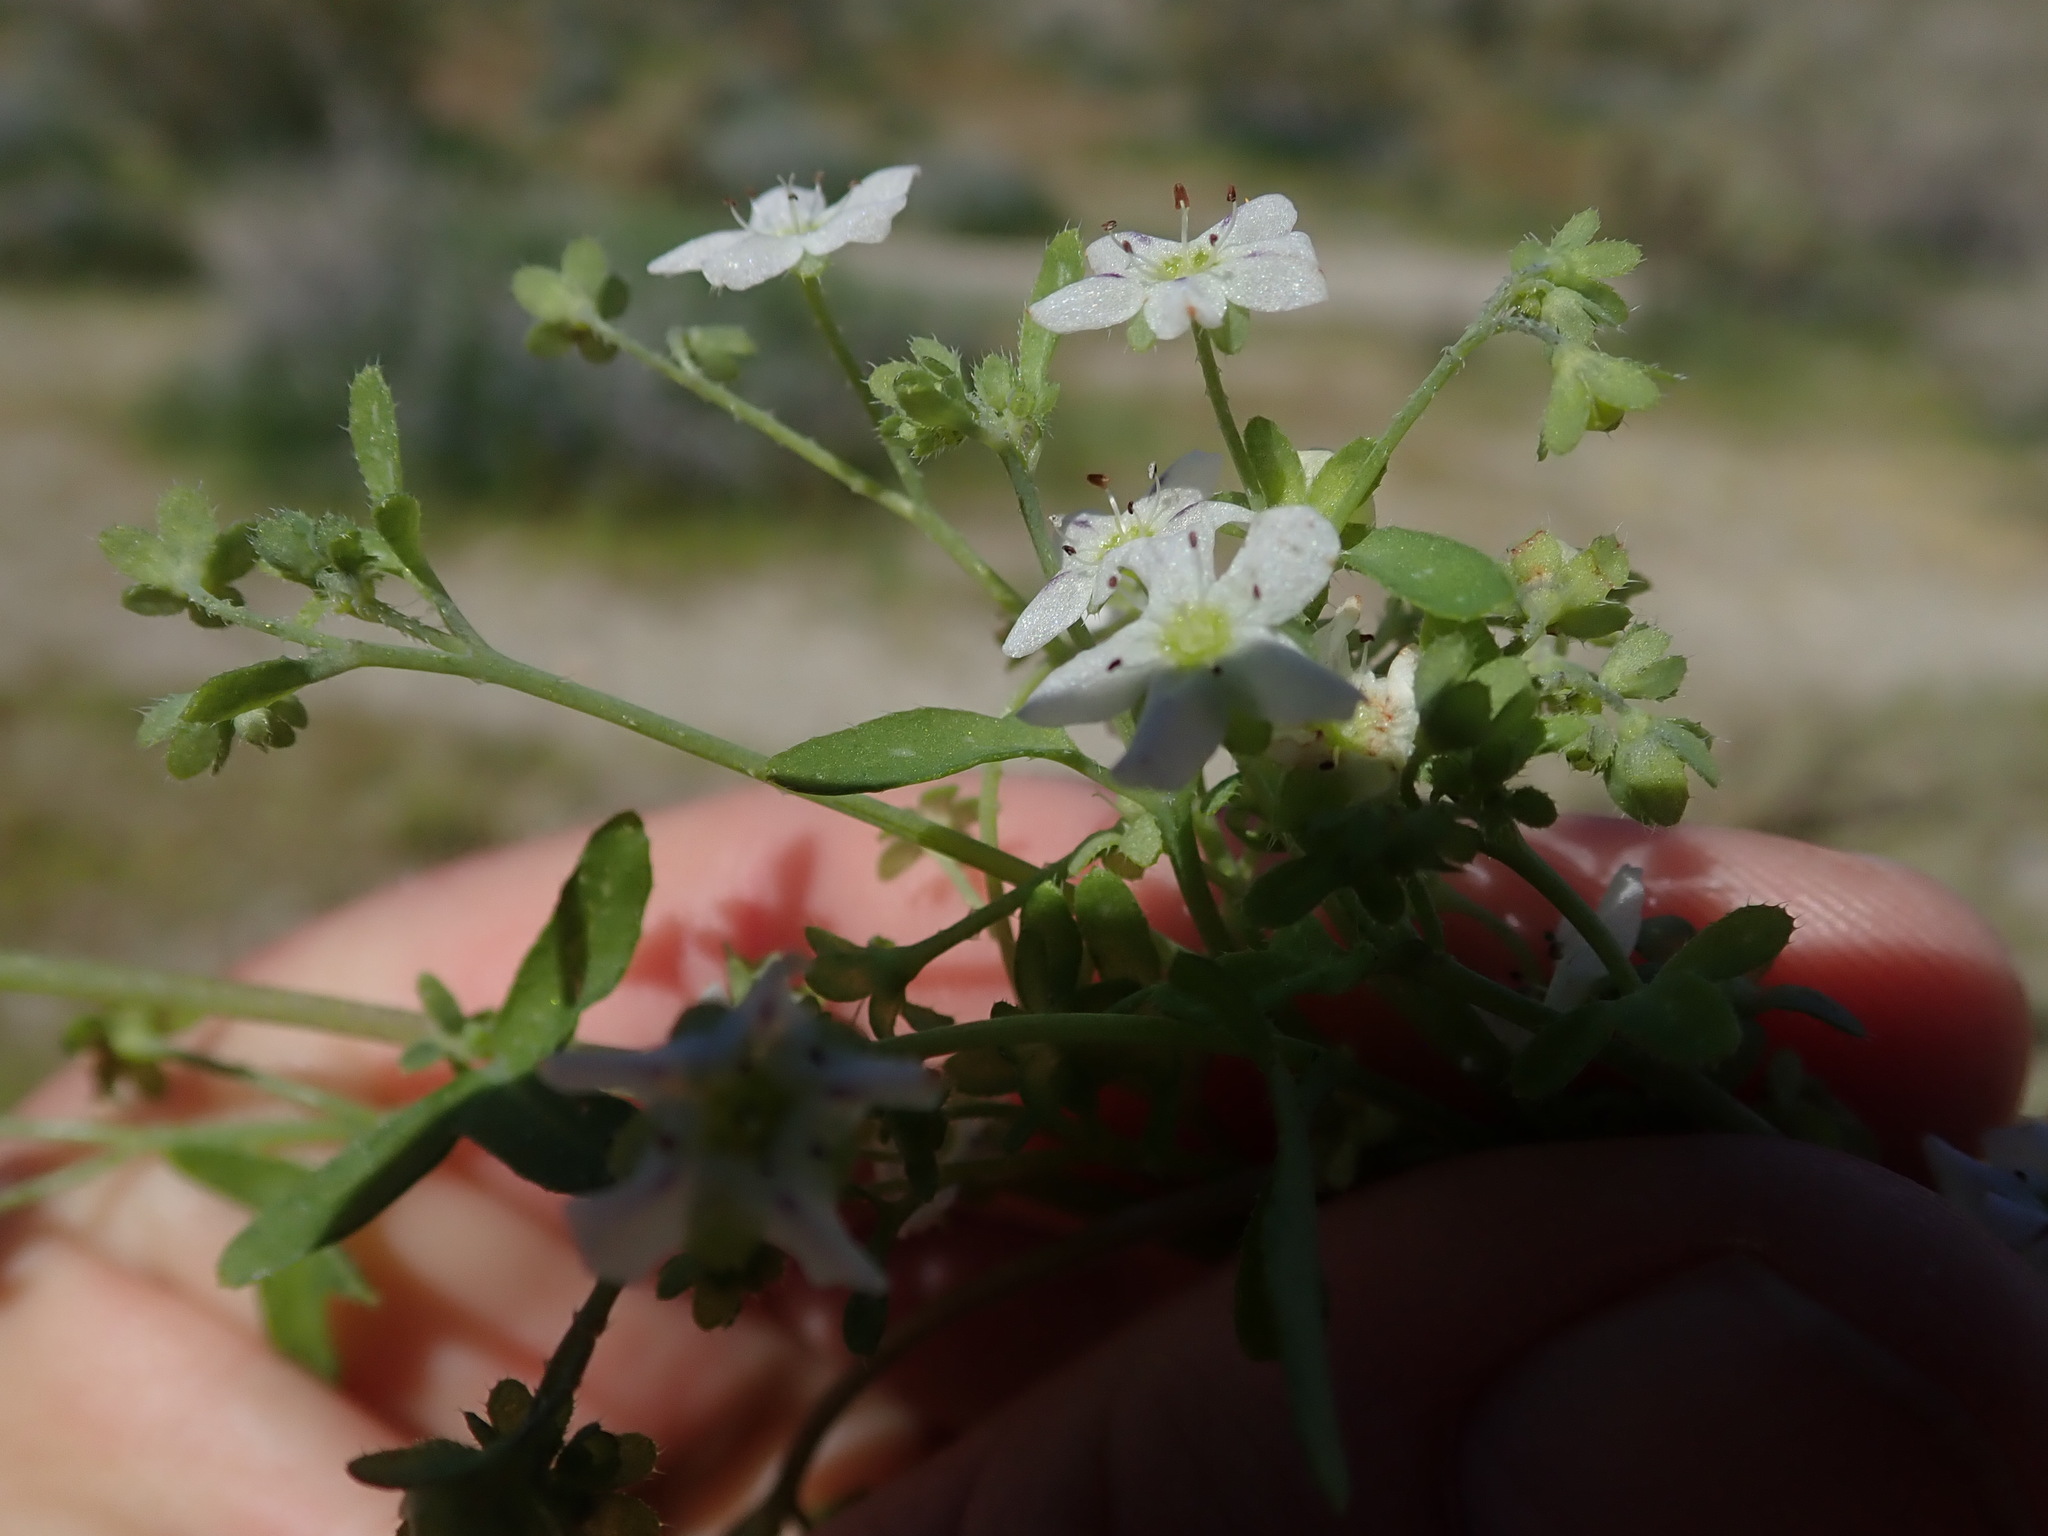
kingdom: Plantae
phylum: Tracheophyta
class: Magnoliopsida
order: Boraginales
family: Hydrophyllaceae
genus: Pholistoma
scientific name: Pholistoma membranaceum
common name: White fiesta-flower
